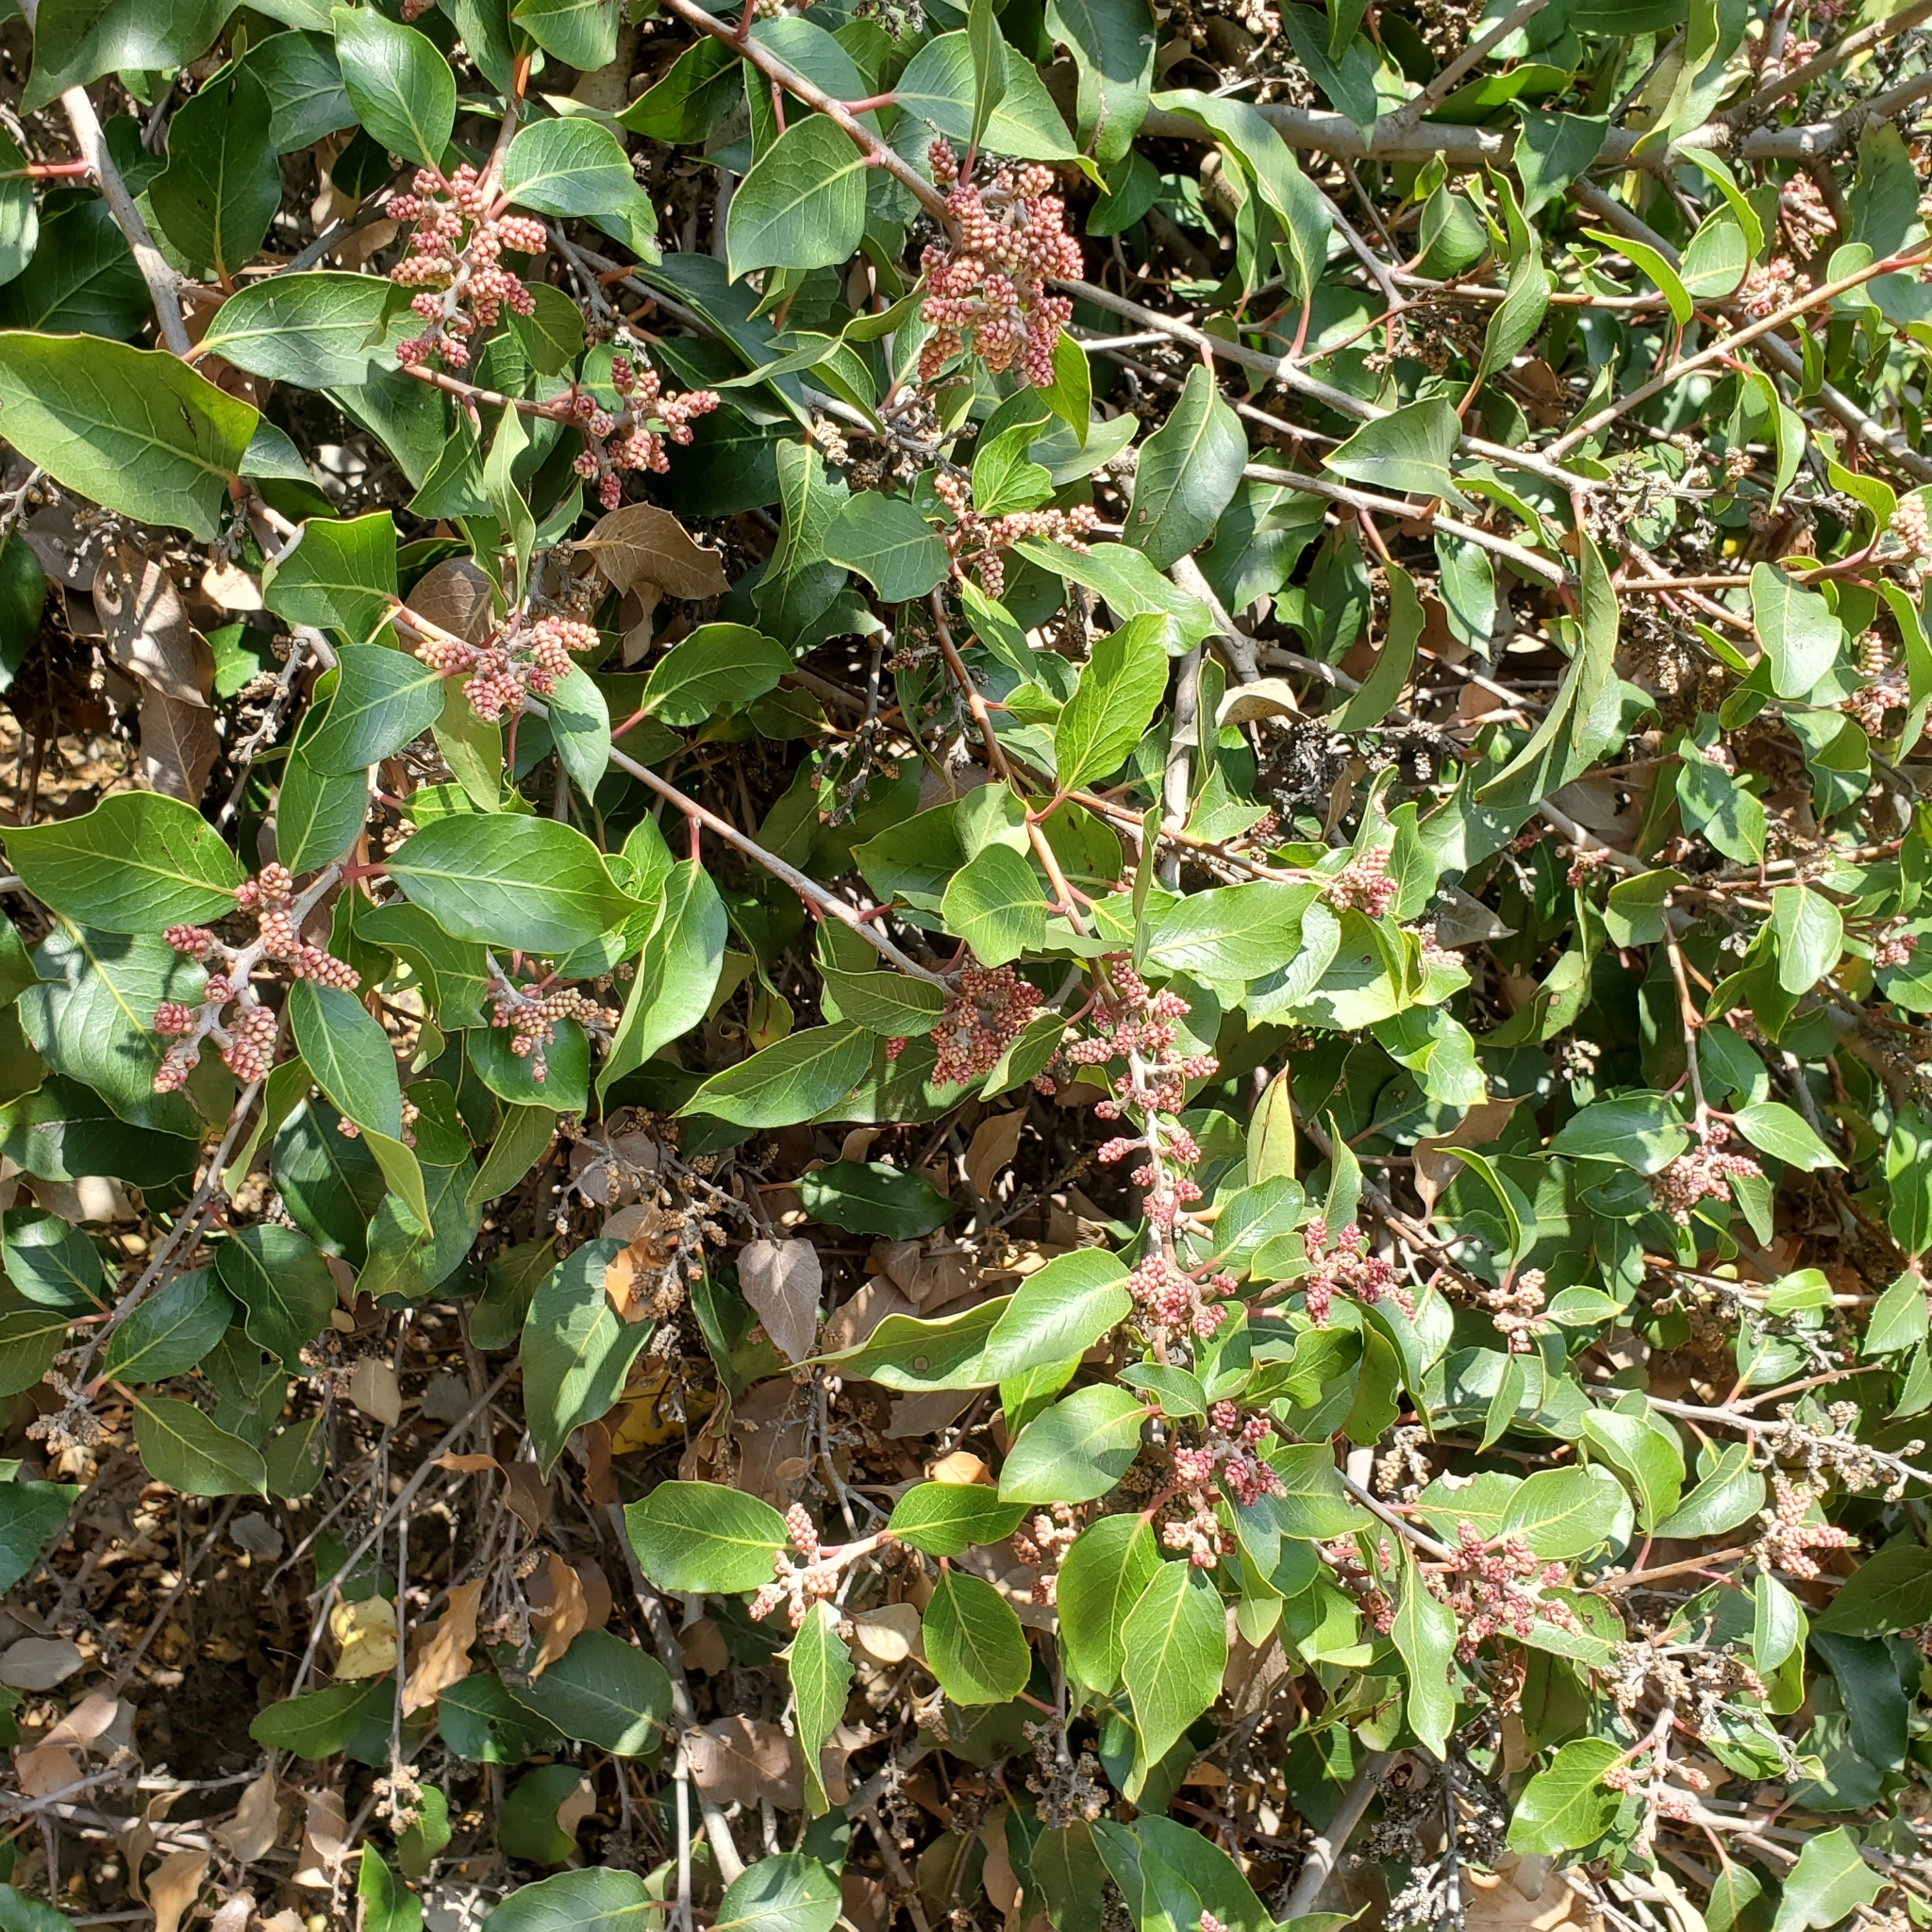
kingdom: Plantae
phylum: Tracheophyta
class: Magnoliopsida
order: Sapindales
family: Anacardiaceae
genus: Rhus
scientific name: Rhus
